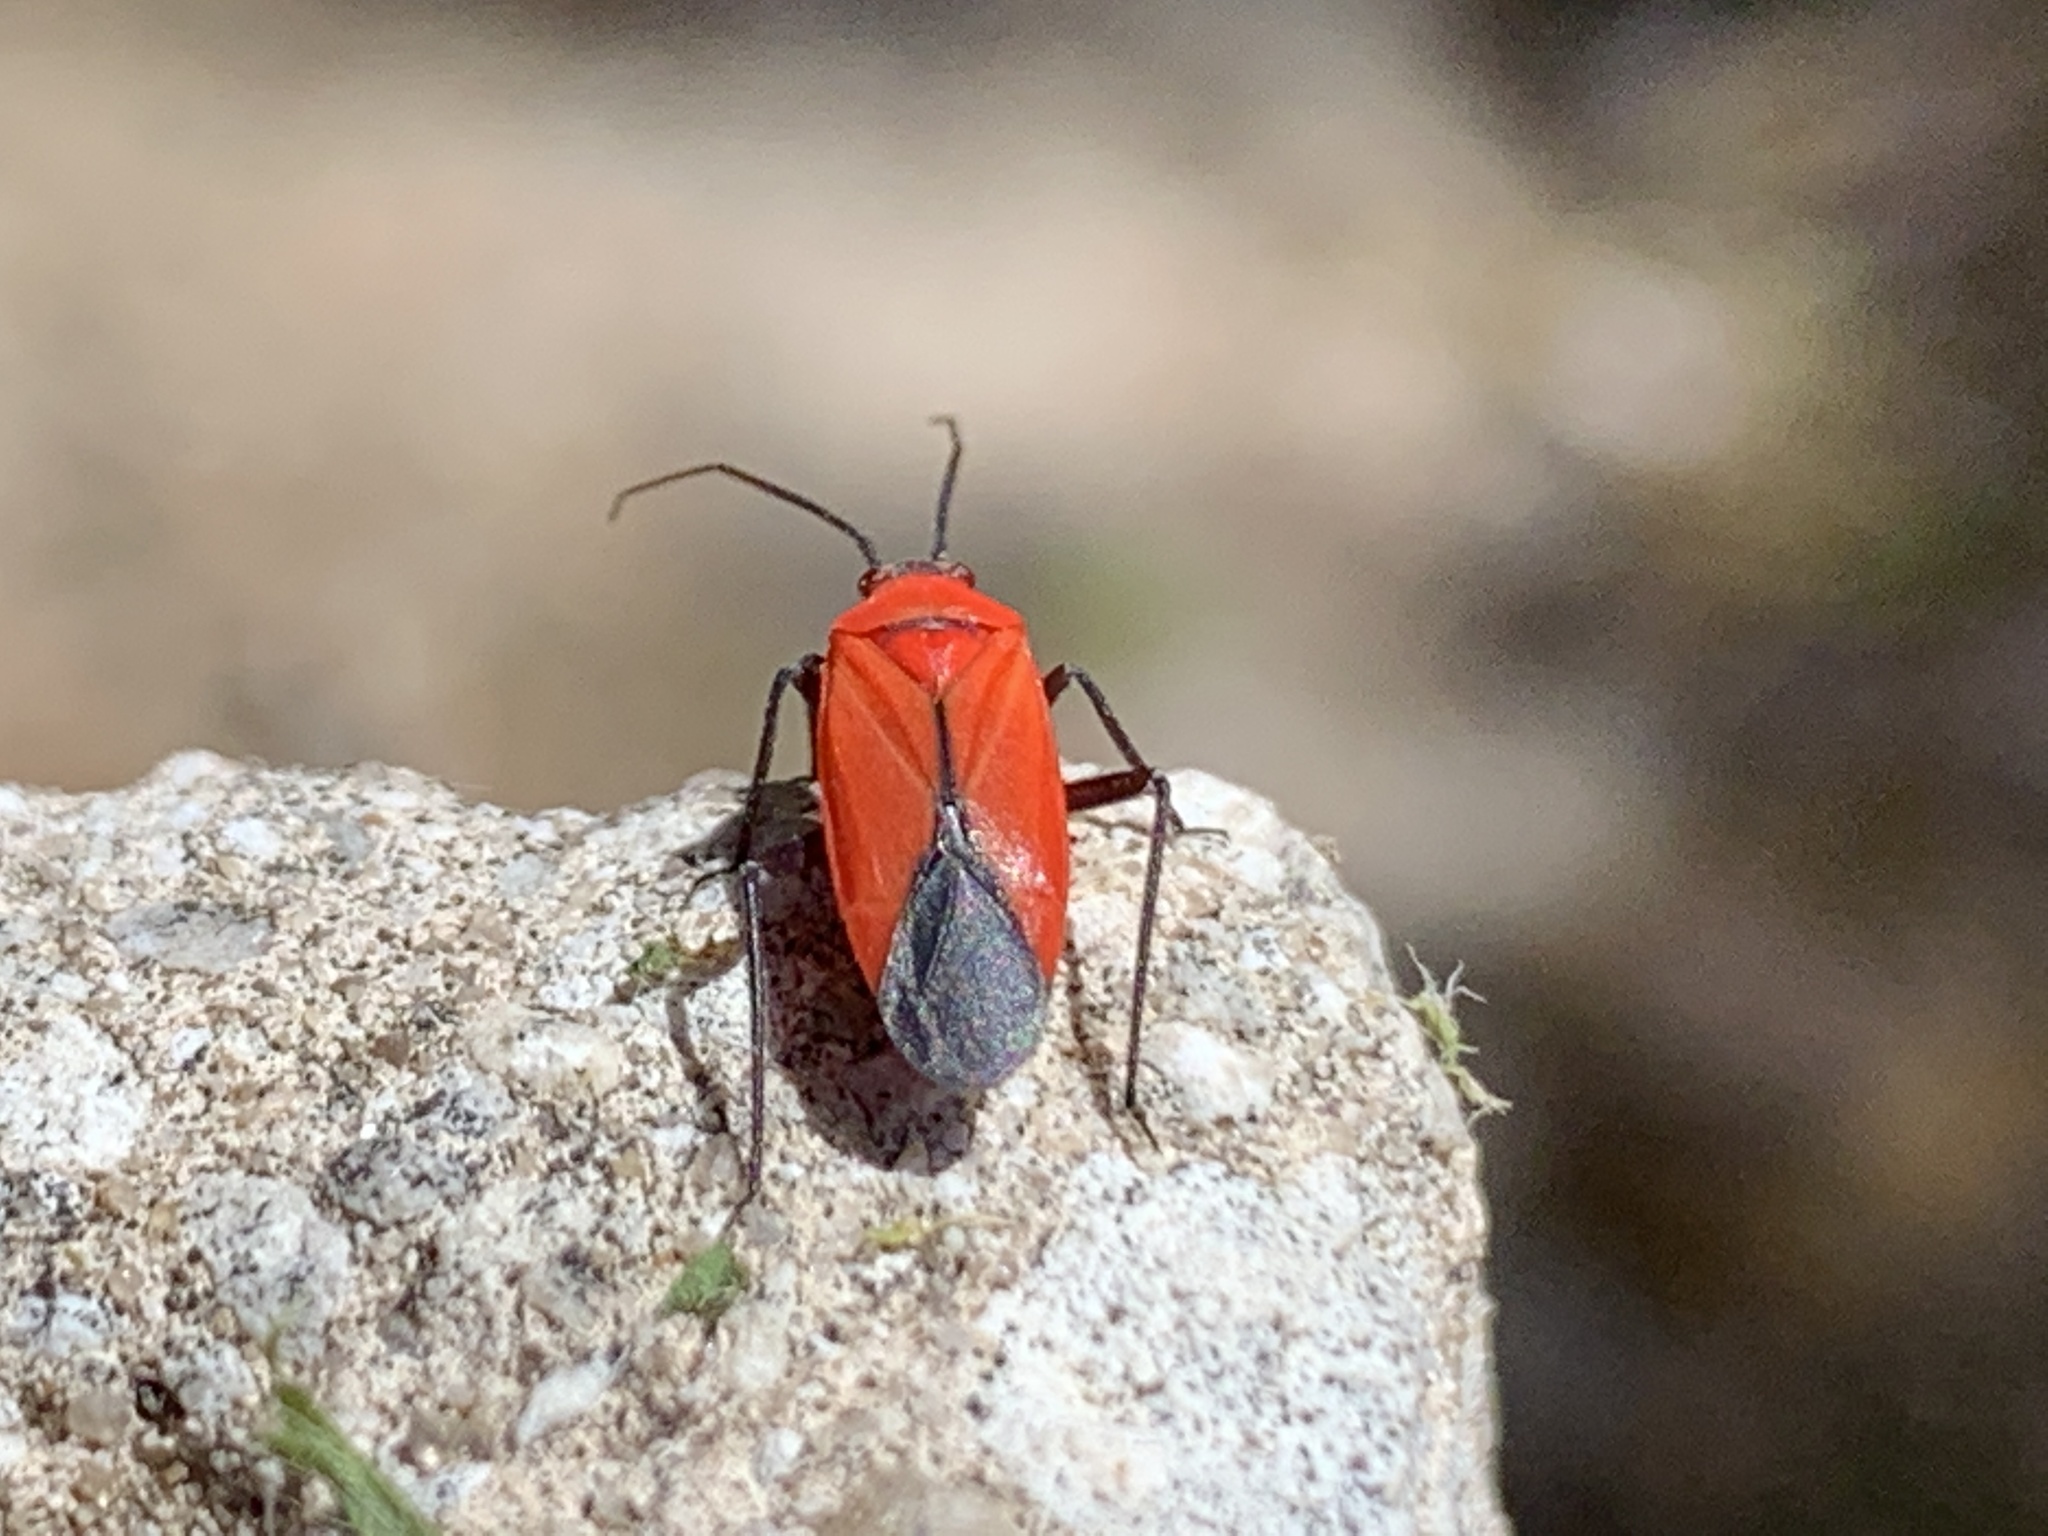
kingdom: Animalia
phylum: Arthropoda
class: Insecta
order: Hemiptera
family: Miridae
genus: Lopidea
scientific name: Lopidea major
